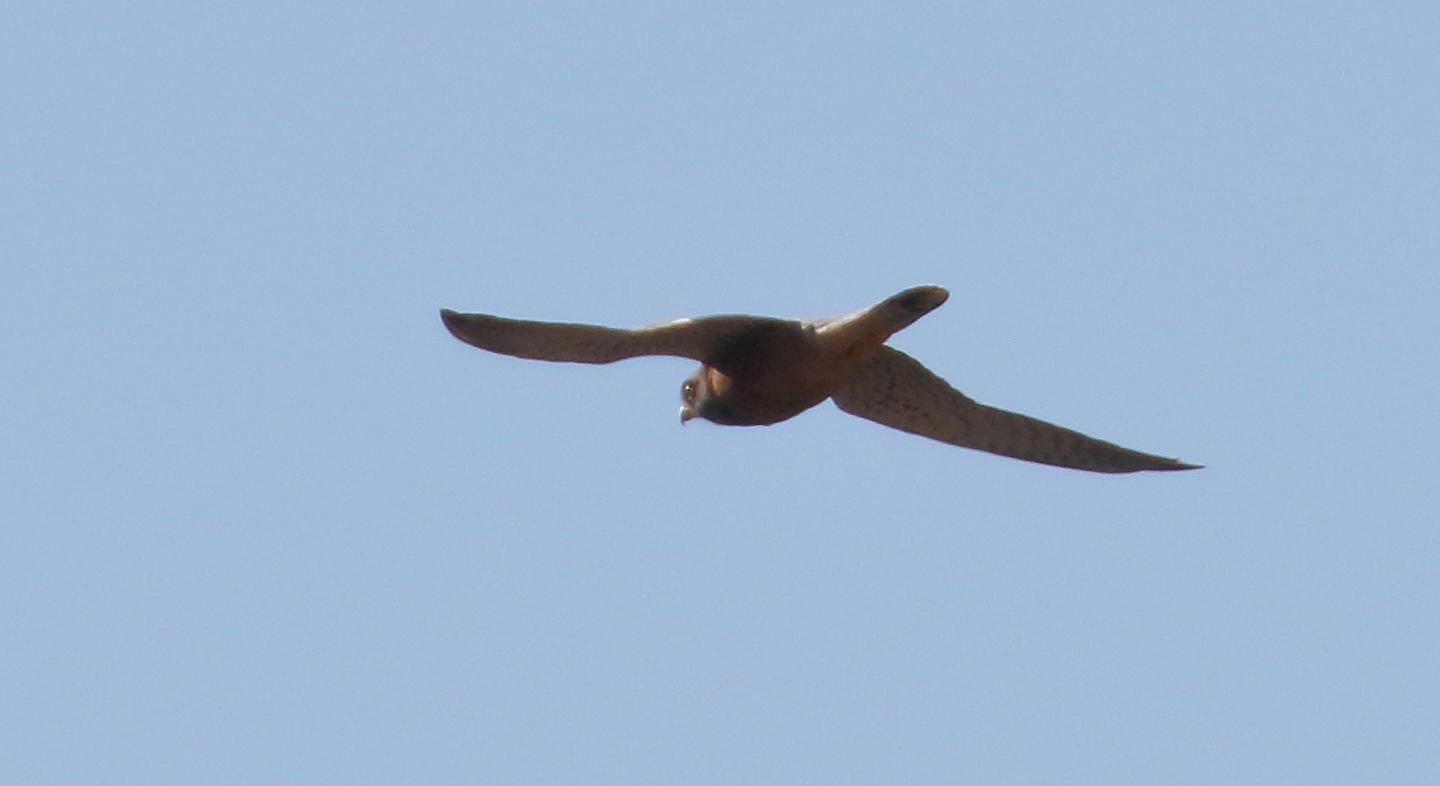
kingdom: Animalia
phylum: Chordata
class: Aves
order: Falconiformes
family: Falconidae
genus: Falco
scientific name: Falco rupicolus
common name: Rock kestrel
